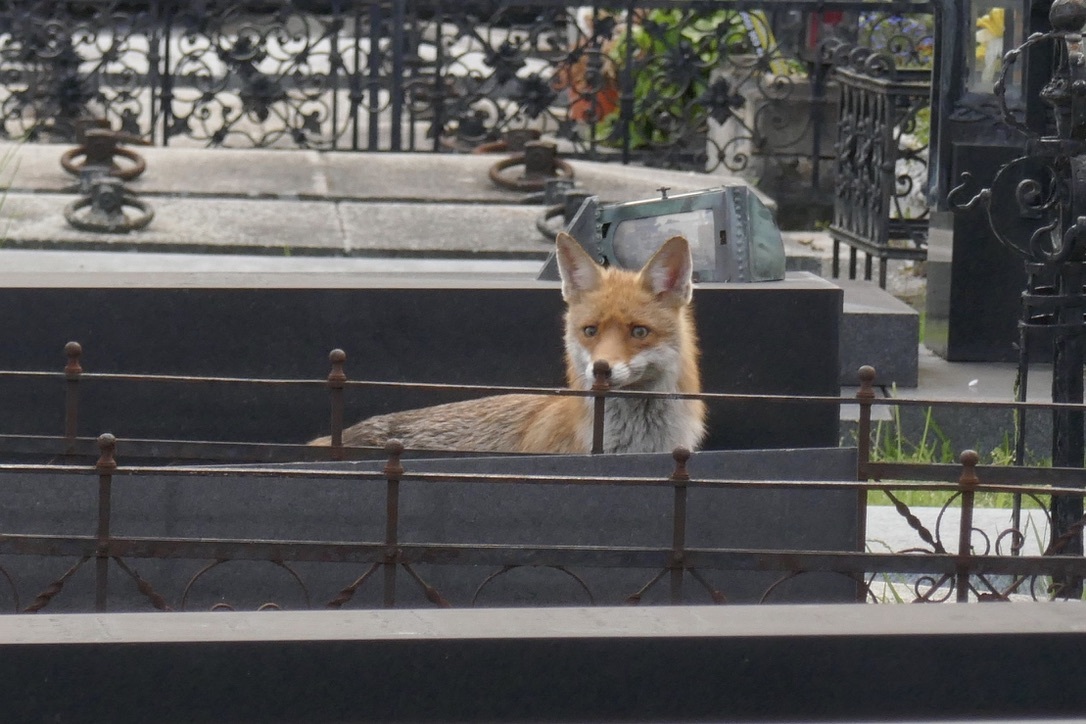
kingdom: Animalia
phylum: Chordata
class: Mammalia
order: Carnivora
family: Canidae
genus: Vulpes
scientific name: Vulpes vulpes
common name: Red fox
